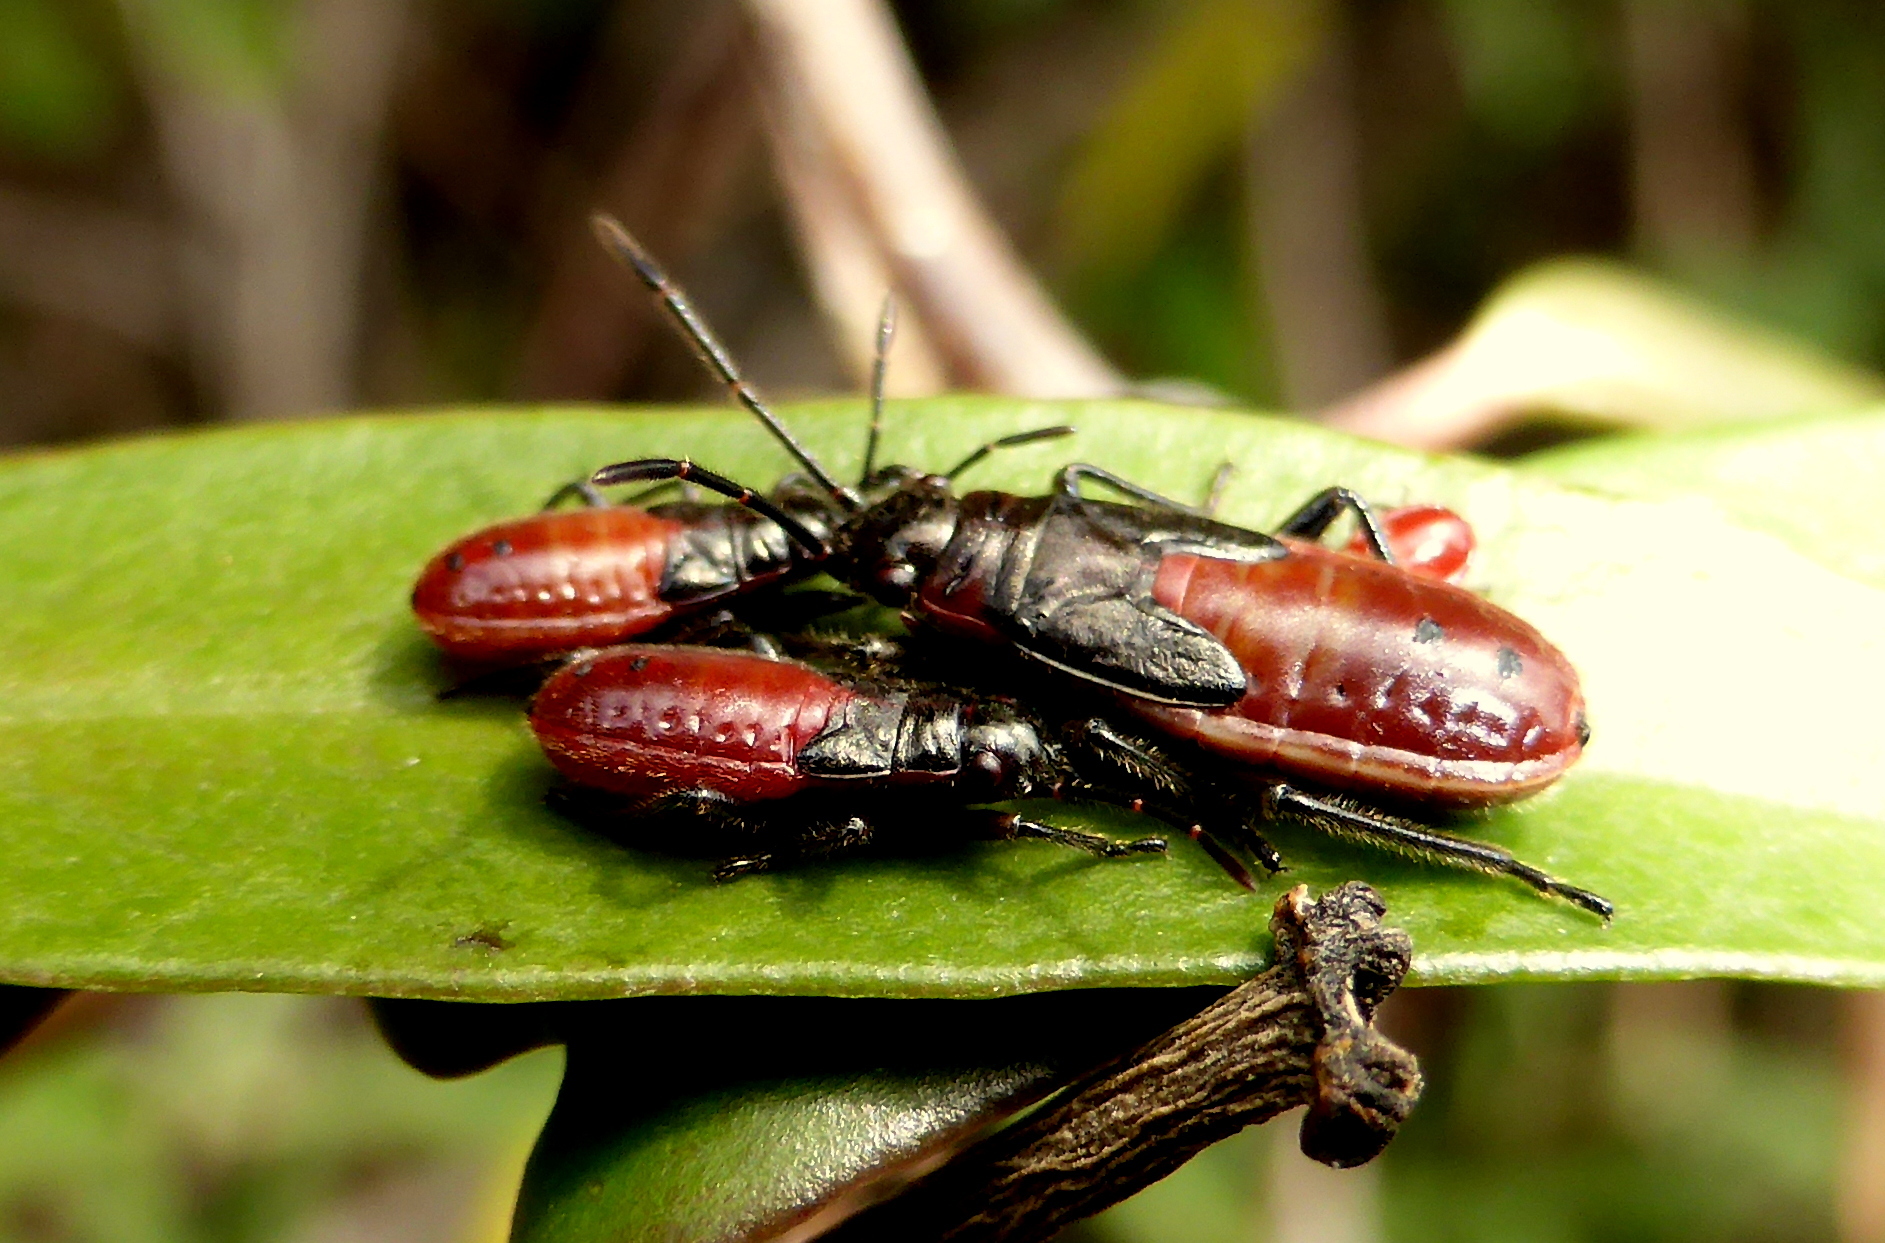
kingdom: Animalia
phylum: Arthropoda
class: Insecta
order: Hemiptera
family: Lygaeidae
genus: Arocatus
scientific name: Arocatus rusticus
